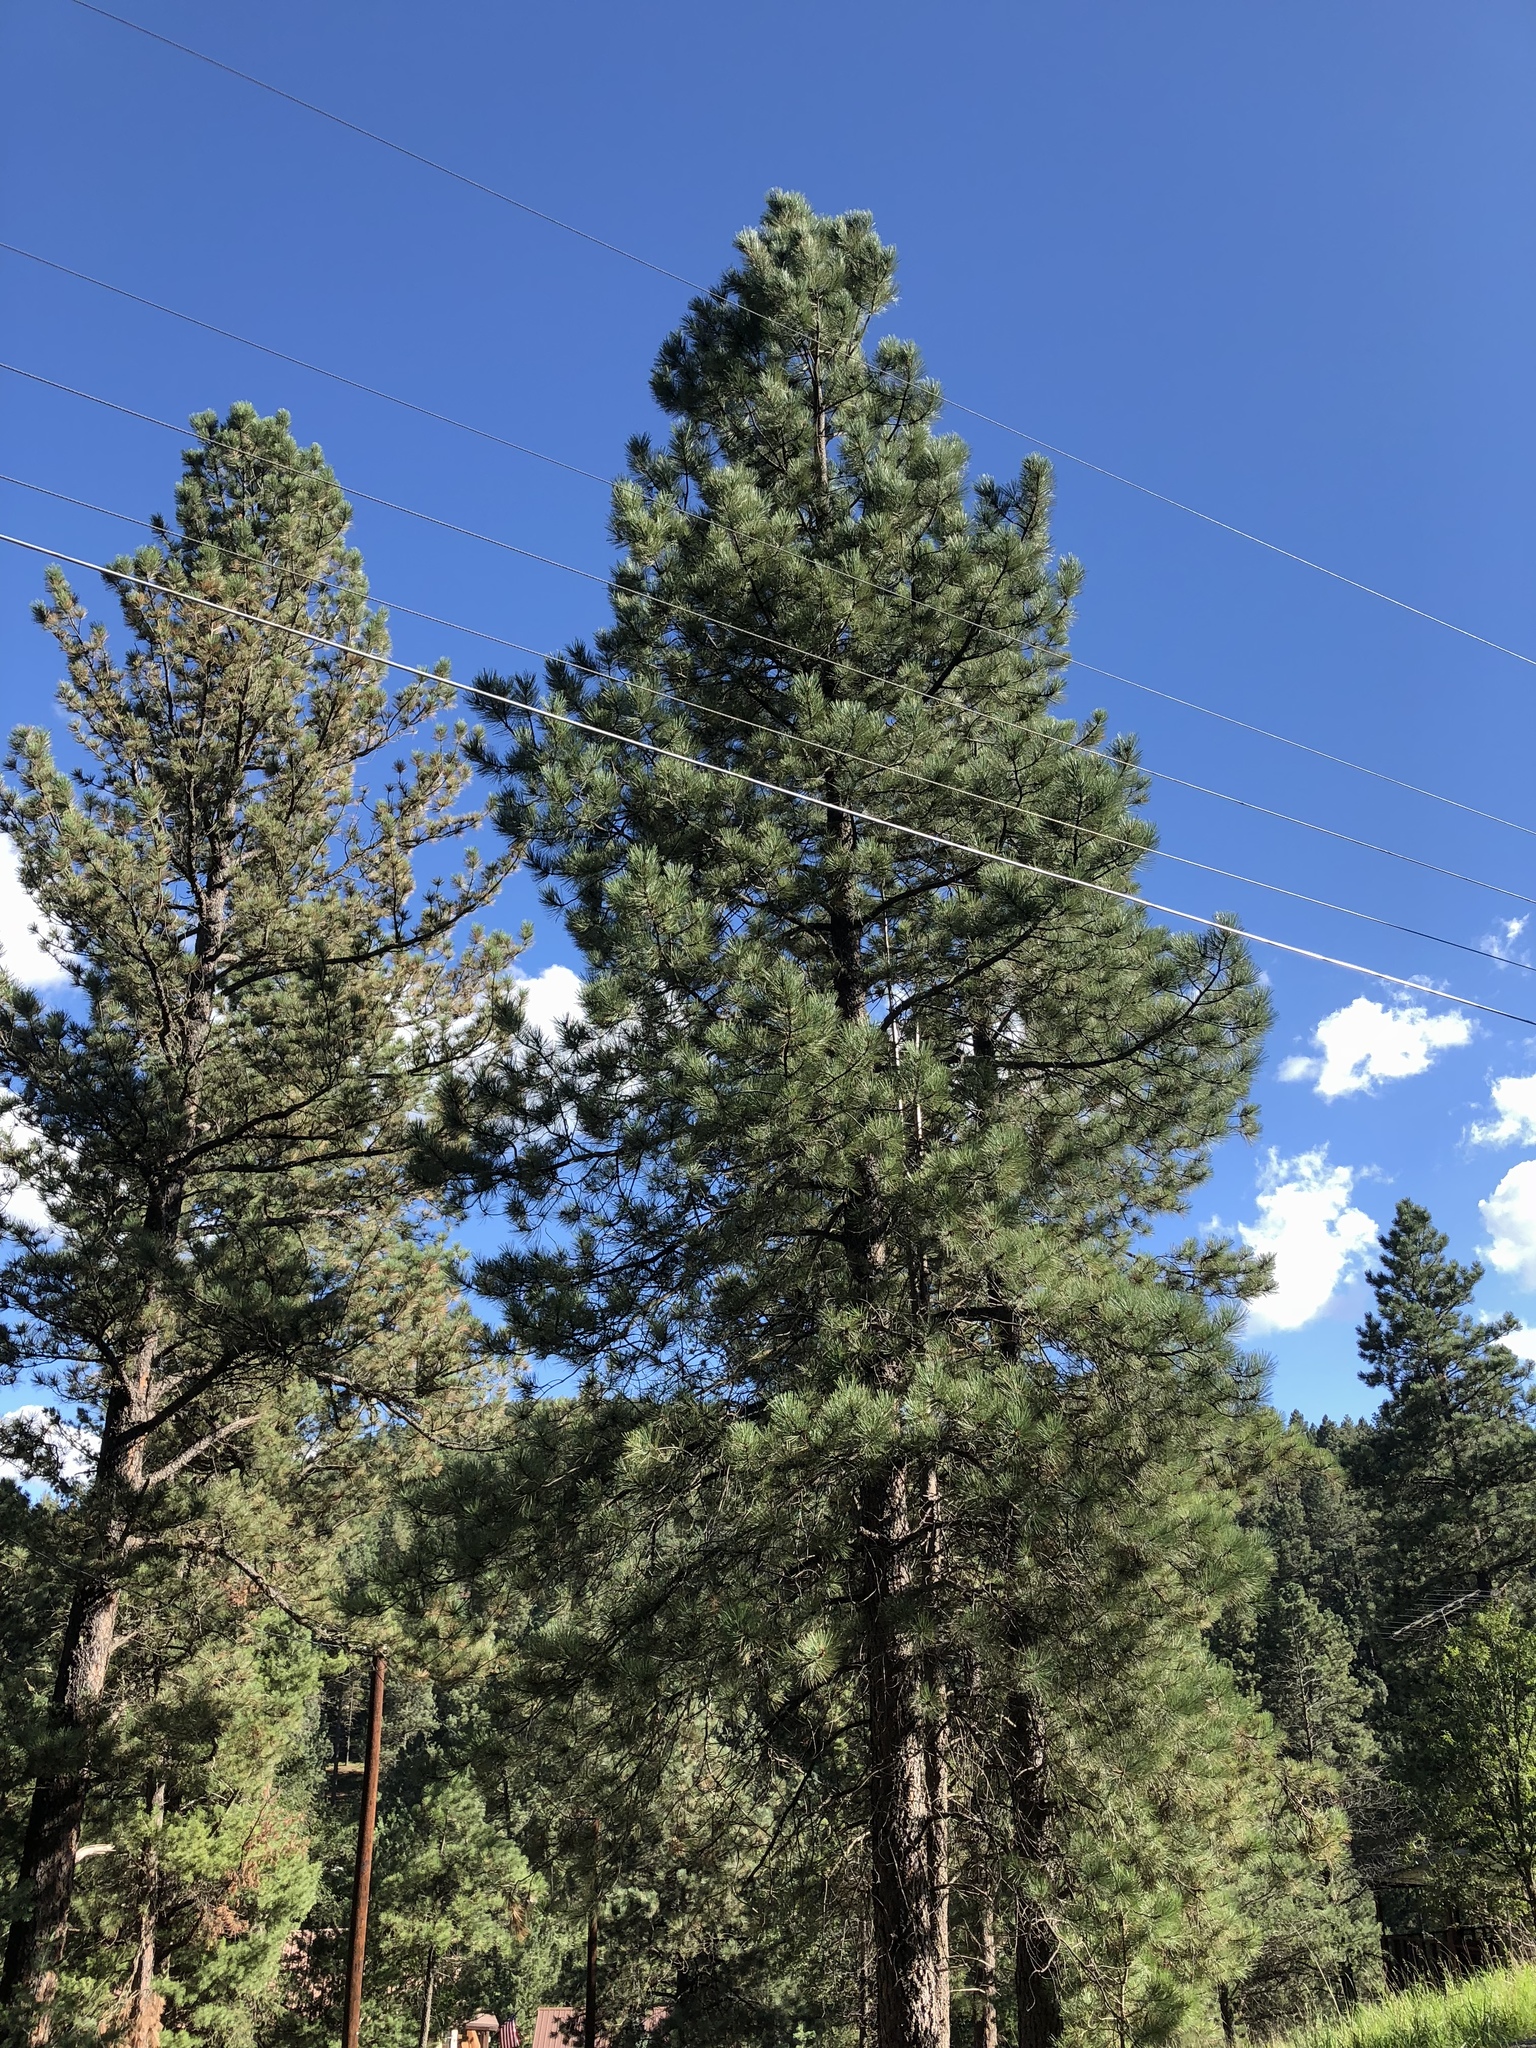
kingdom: Plantae
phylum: Tracheophyta
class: Pinopsida
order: Pinales
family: Pinaceae
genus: Pinus
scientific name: Pinus ponderosa
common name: Western yellow-pine
